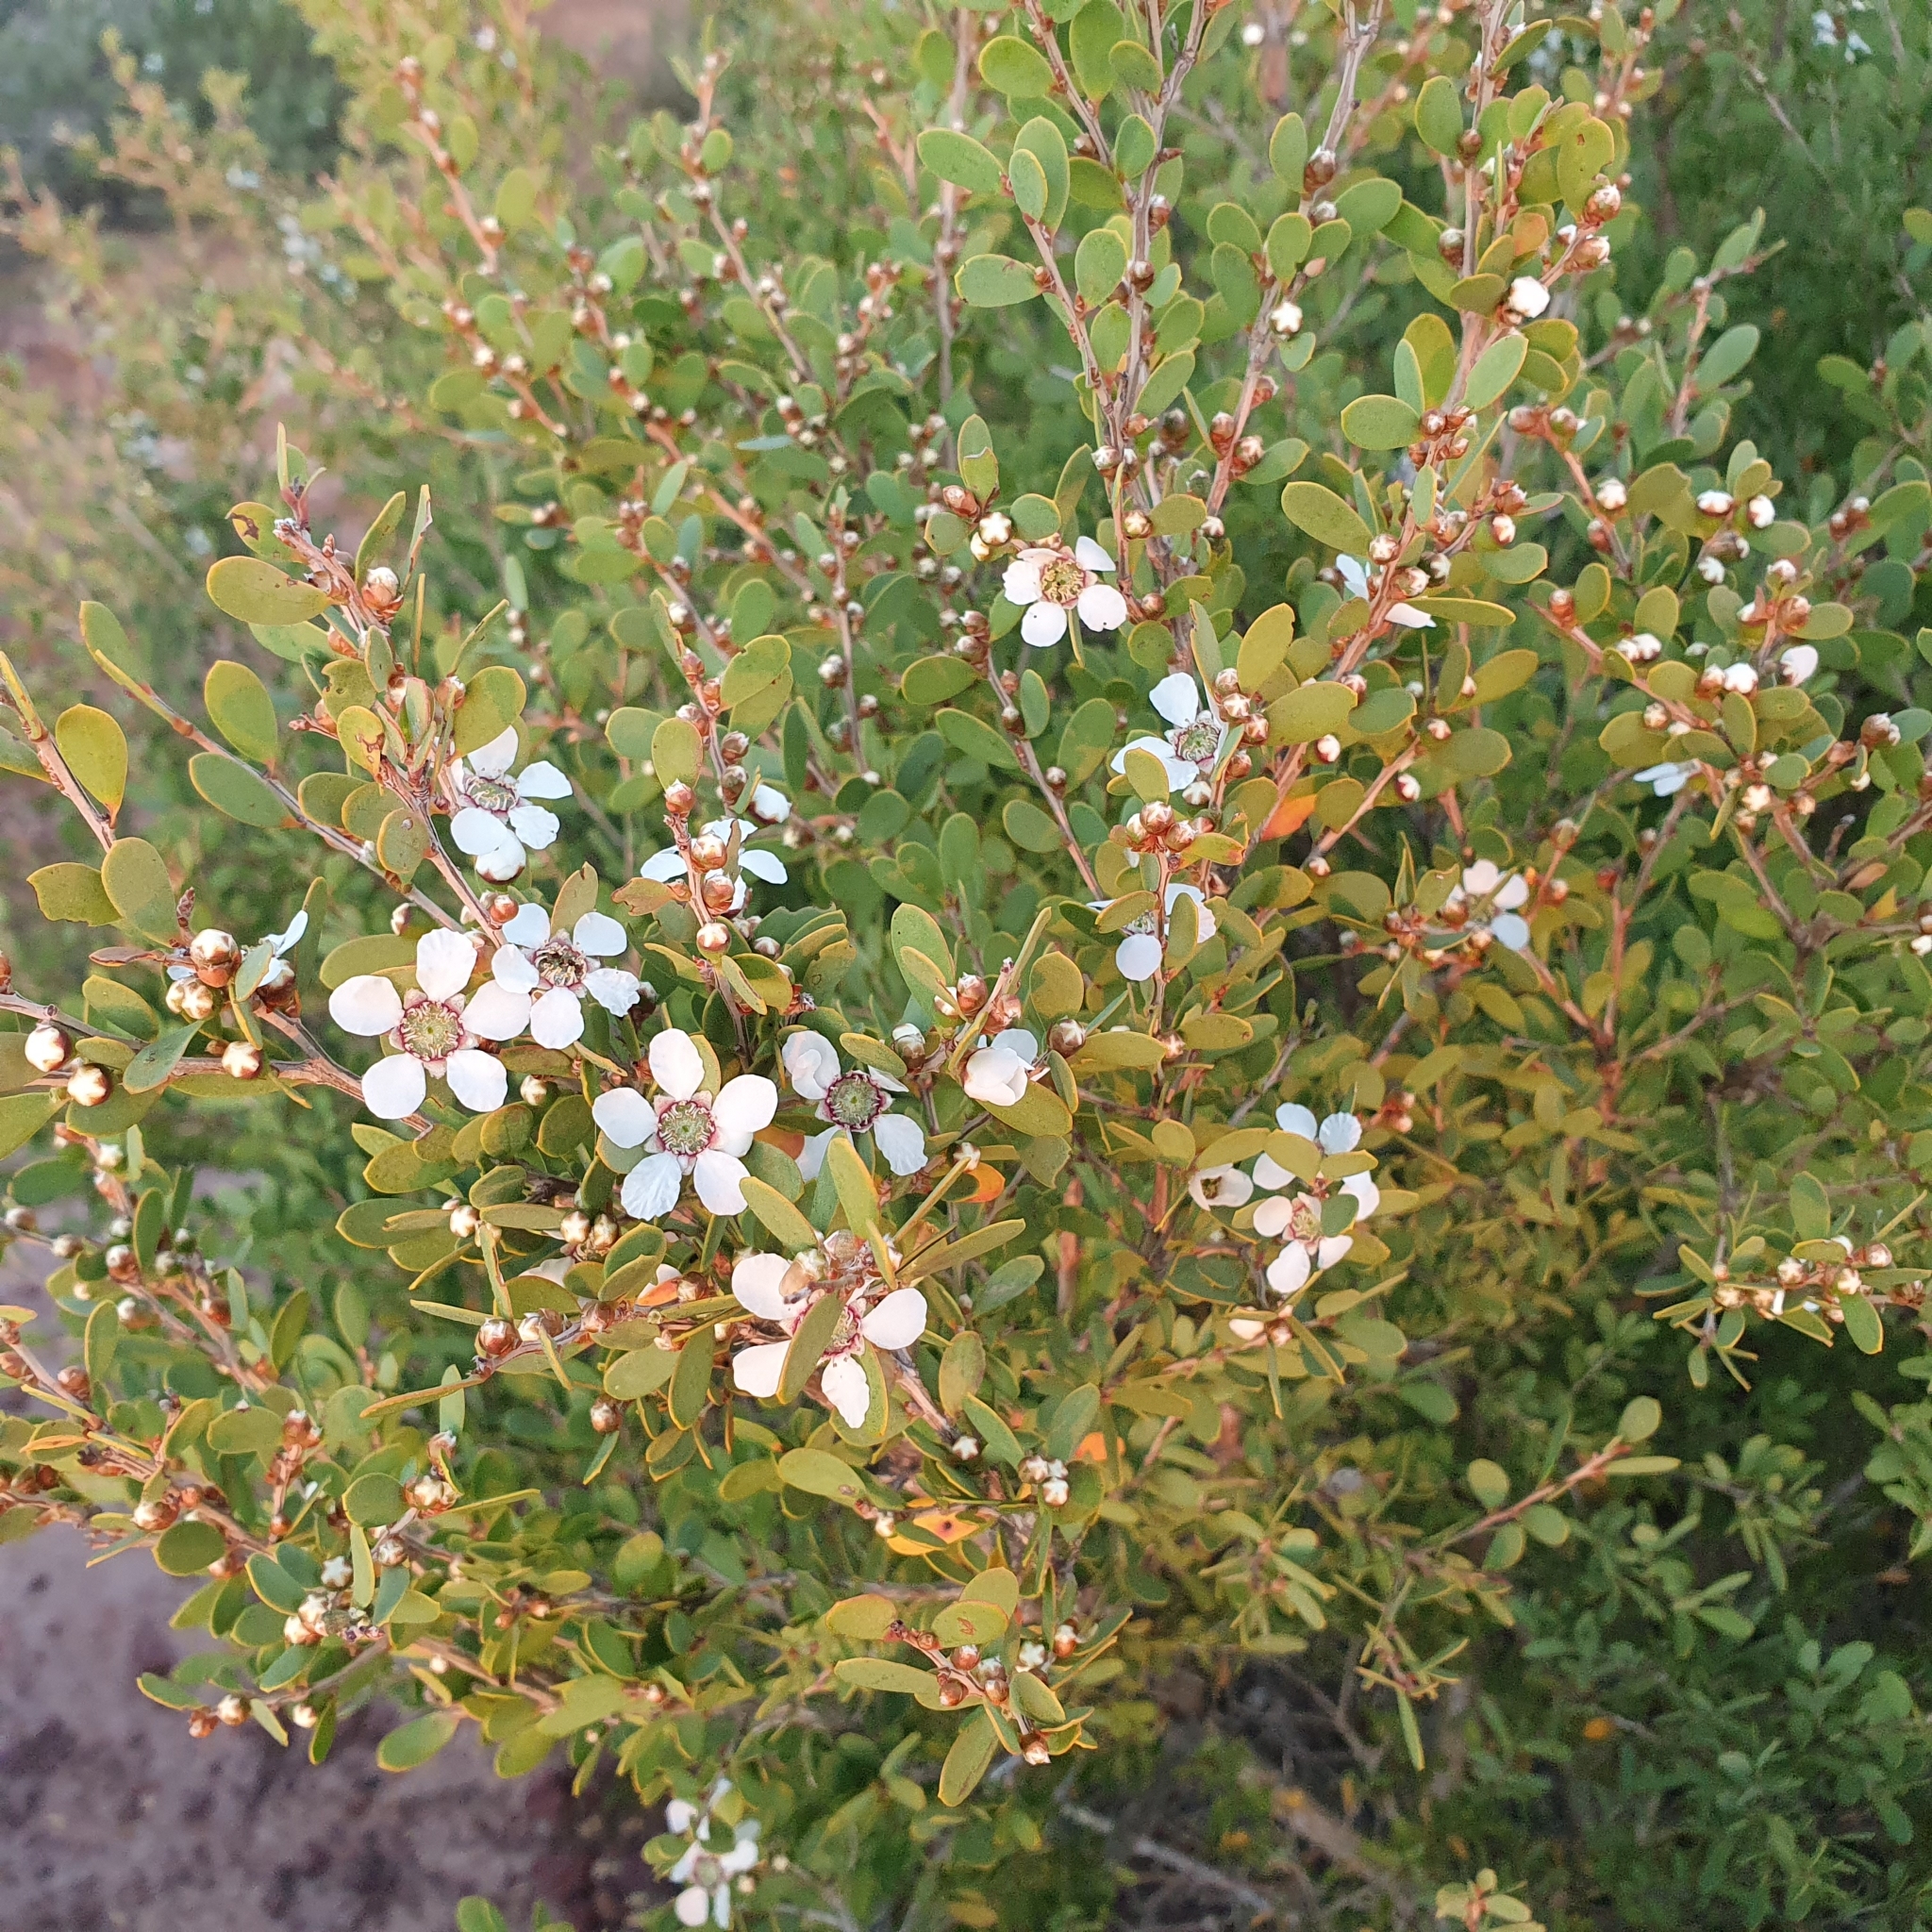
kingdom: Plantae
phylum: Tracheophyta
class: Magnoliopsida
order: Myrtales
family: Myrtaceae
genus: Leptospermum
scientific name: Leptospermum laevigatum
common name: Australian teatree
